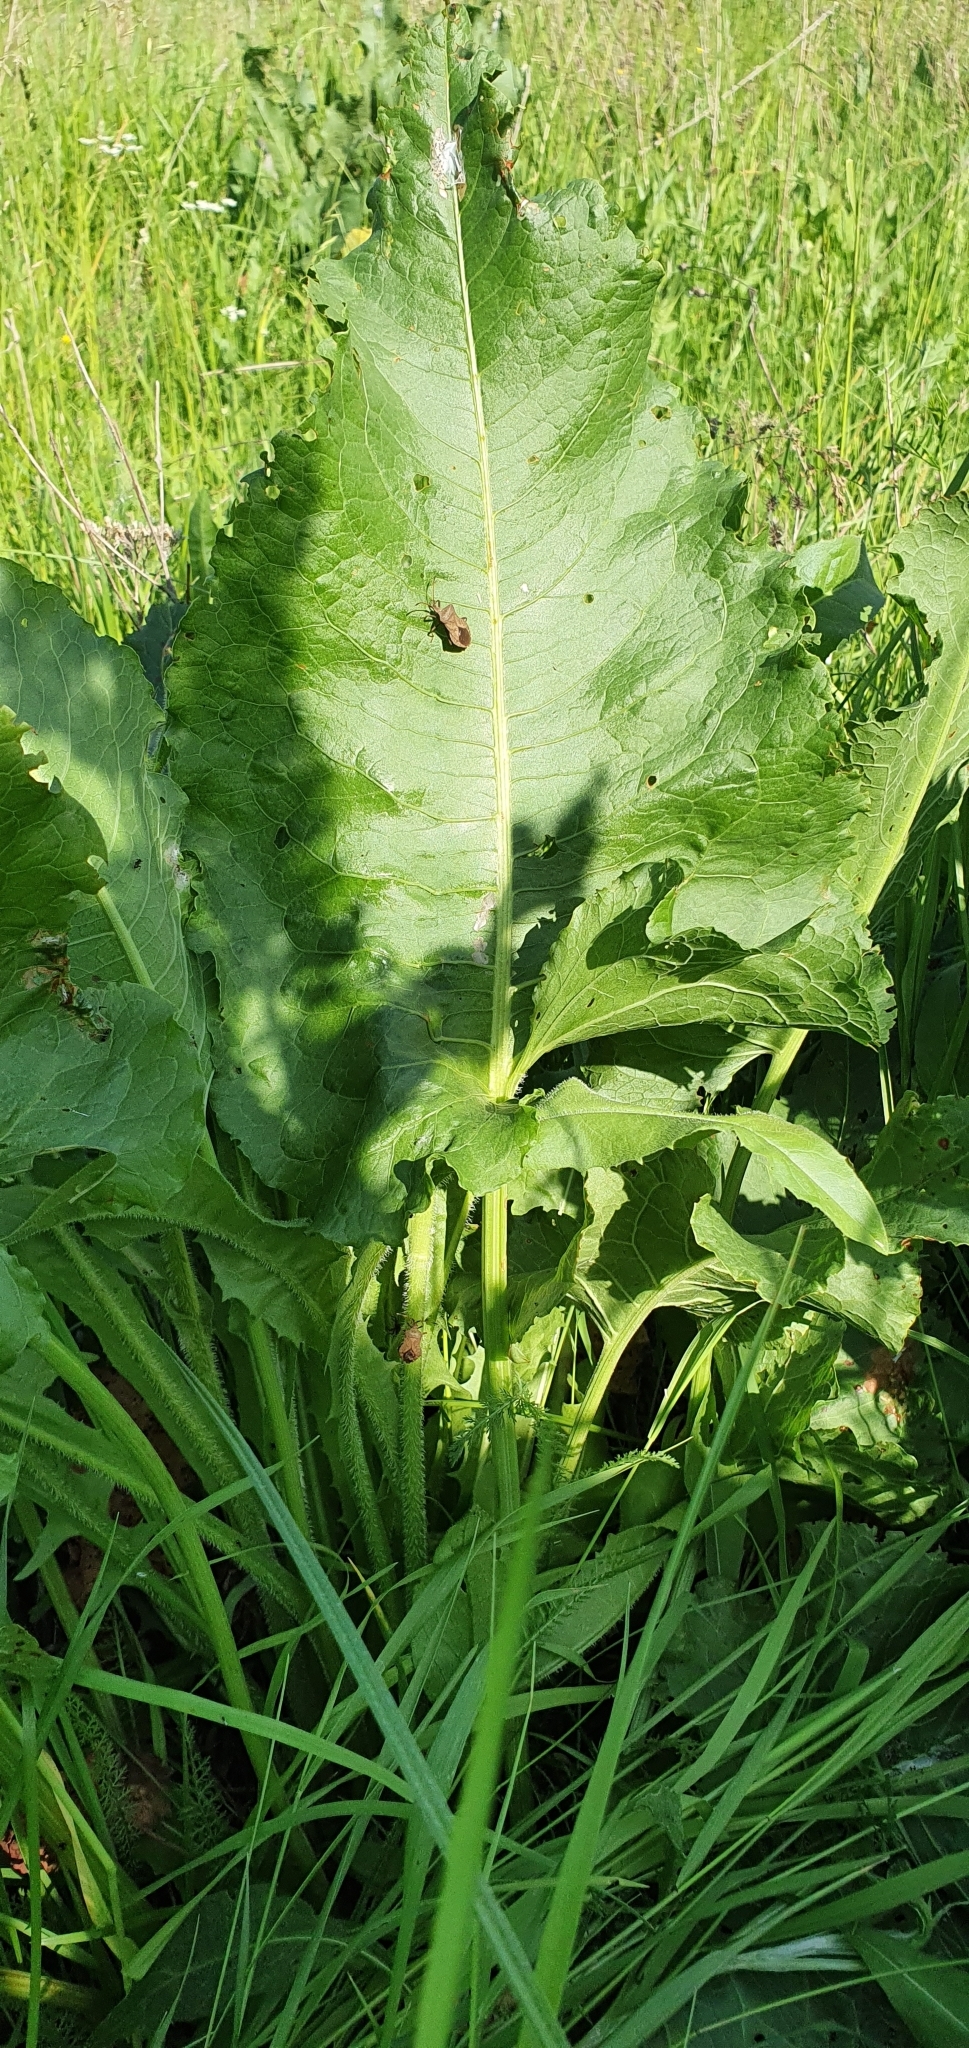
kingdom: Plantae
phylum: Tracheophyta
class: Magnoliopsida
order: Caryophyllales
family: Polygonaceae
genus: Rumex
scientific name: Rumex confertus
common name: Russian dock
